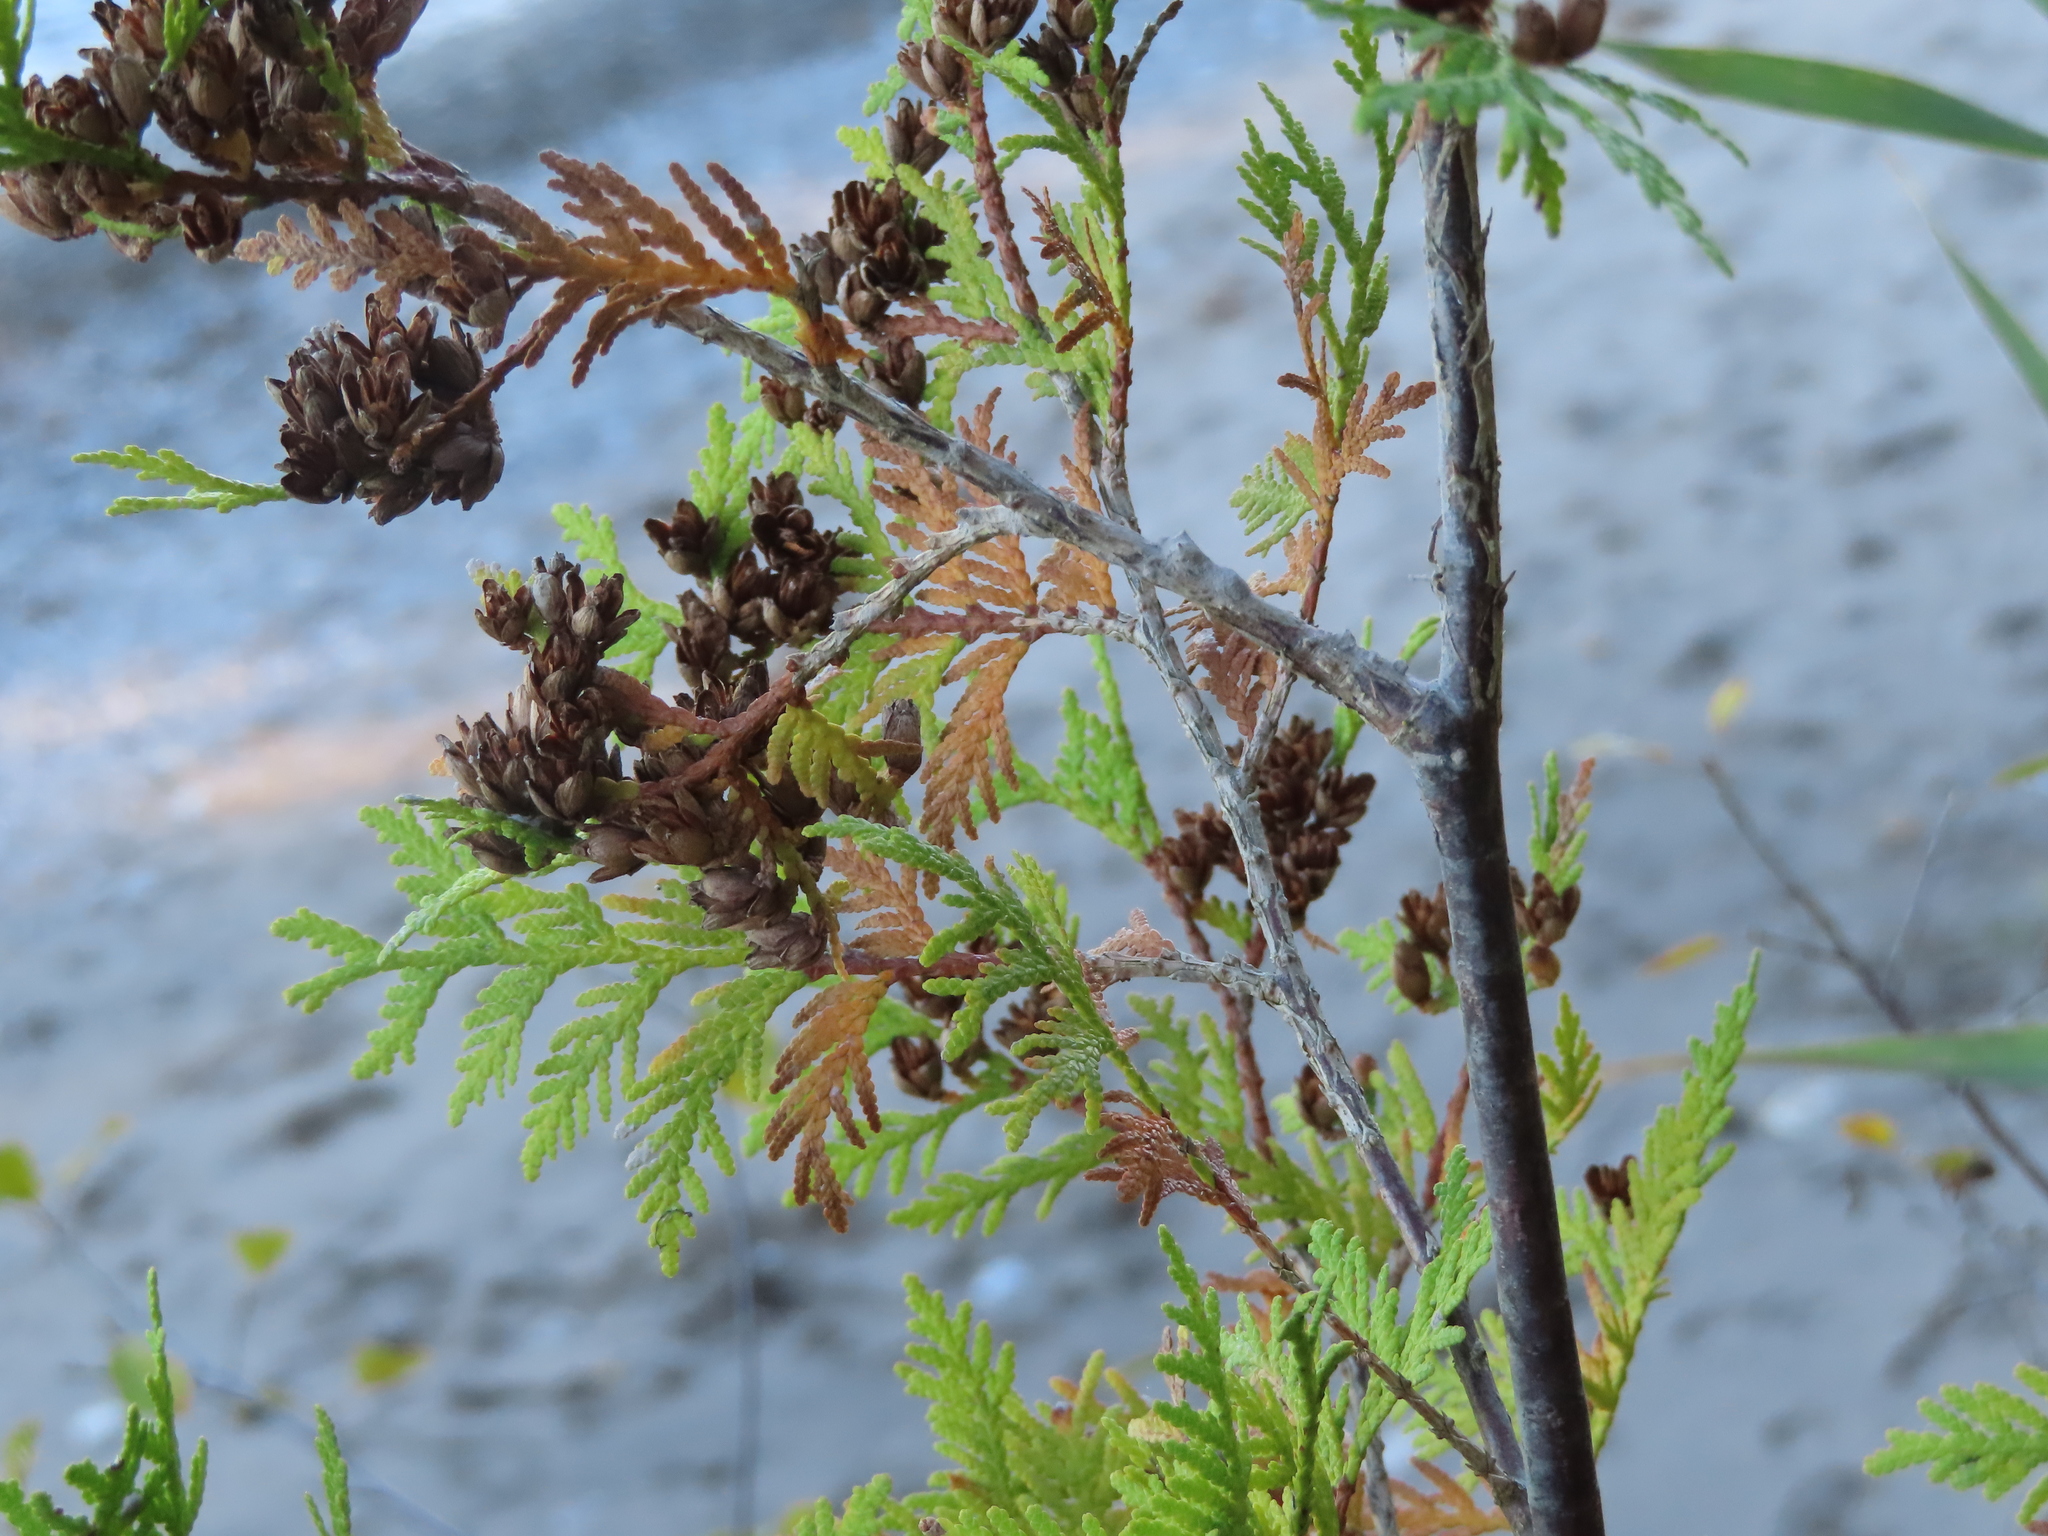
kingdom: Plantae
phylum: Tracheophyta
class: Pinopsida
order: Pinales
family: Cupressaceae
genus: Thuja
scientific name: Thuja occidentalis
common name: Northern white-cedar
